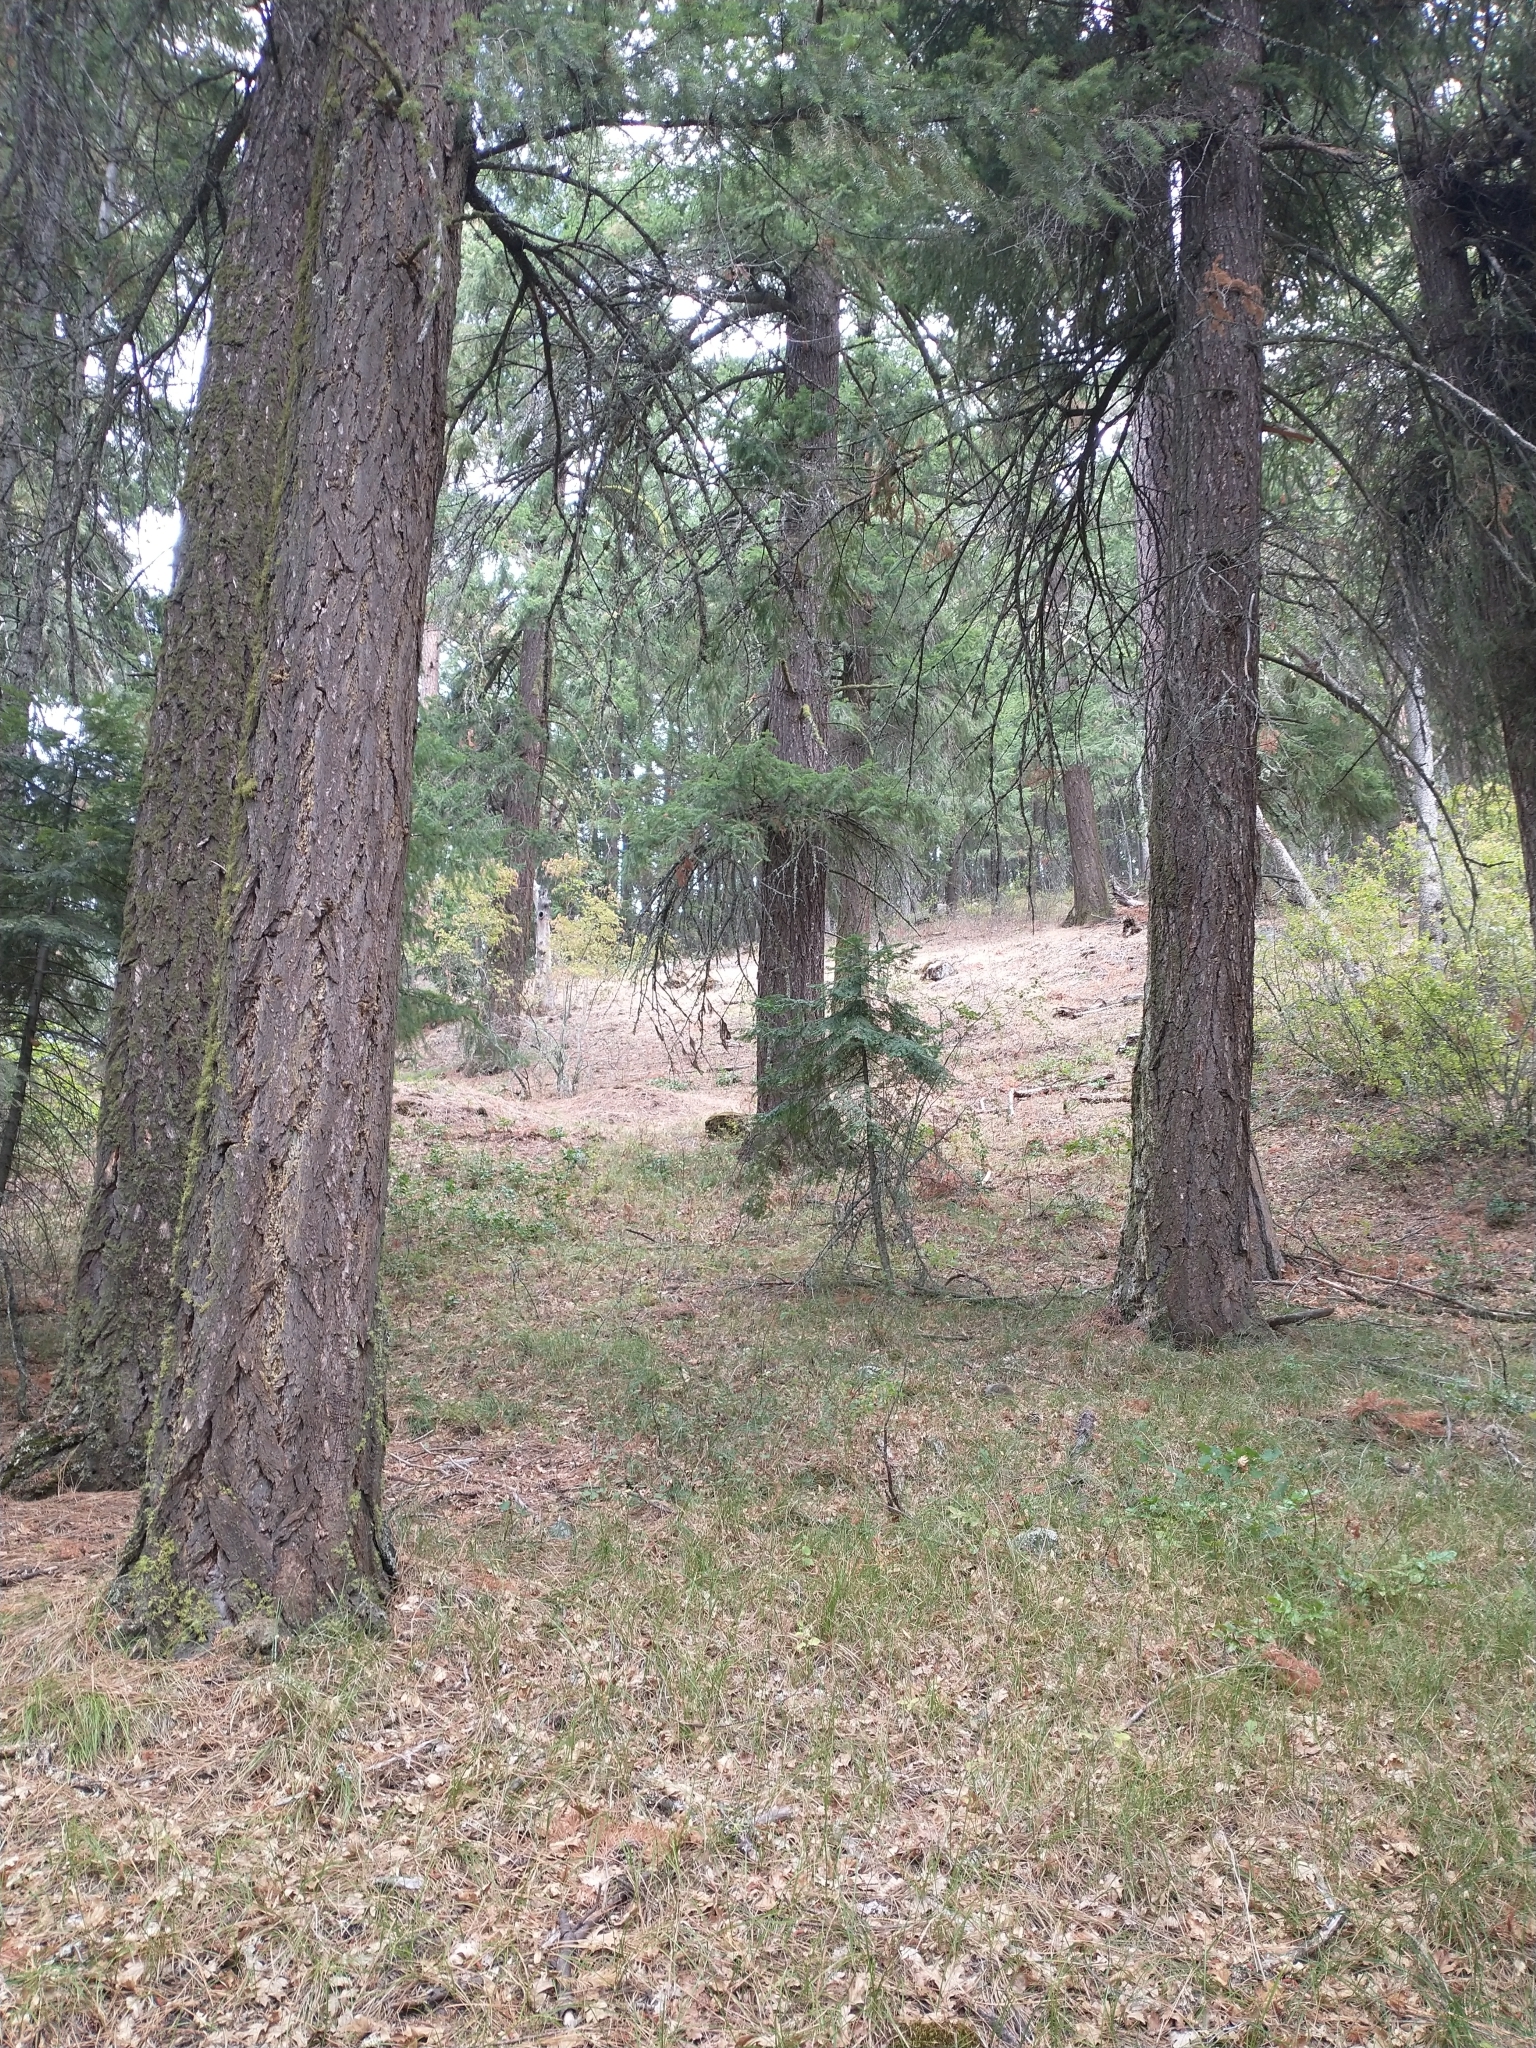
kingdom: Plantae
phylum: Tracheophyta
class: Pinopsida
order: Pinales
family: Pinaceae
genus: Pseudotsuga
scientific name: Pseudotsuga menziesii
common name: Douglas fir
